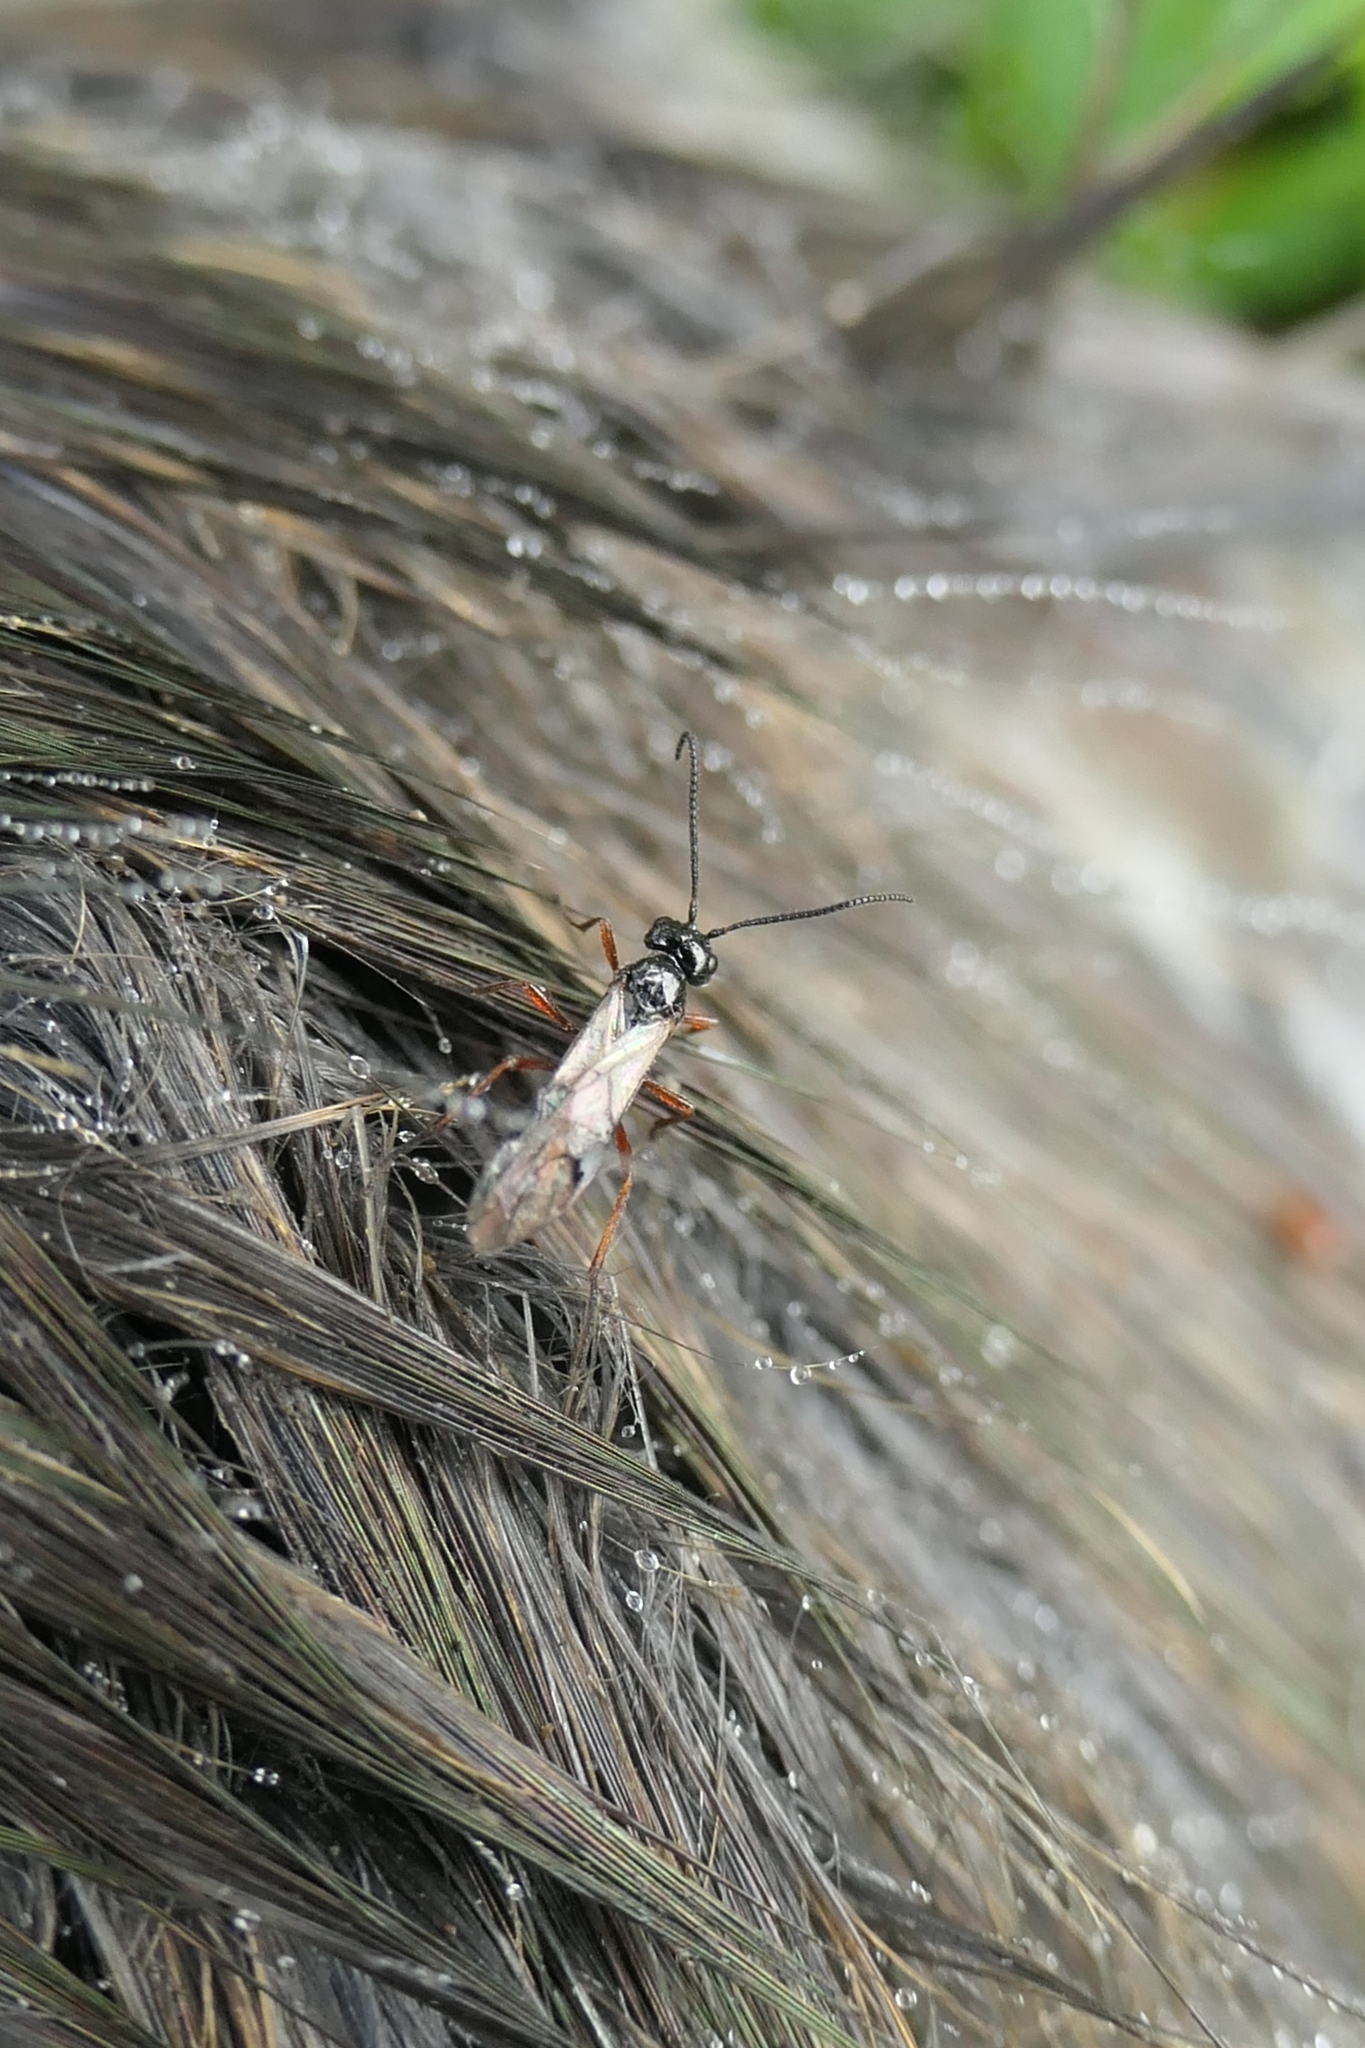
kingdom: Animalia
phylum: Arthropoda
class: Insecta
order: Hymenoptera
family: Braconidae
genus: Alysia
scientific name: Alysia manducator
